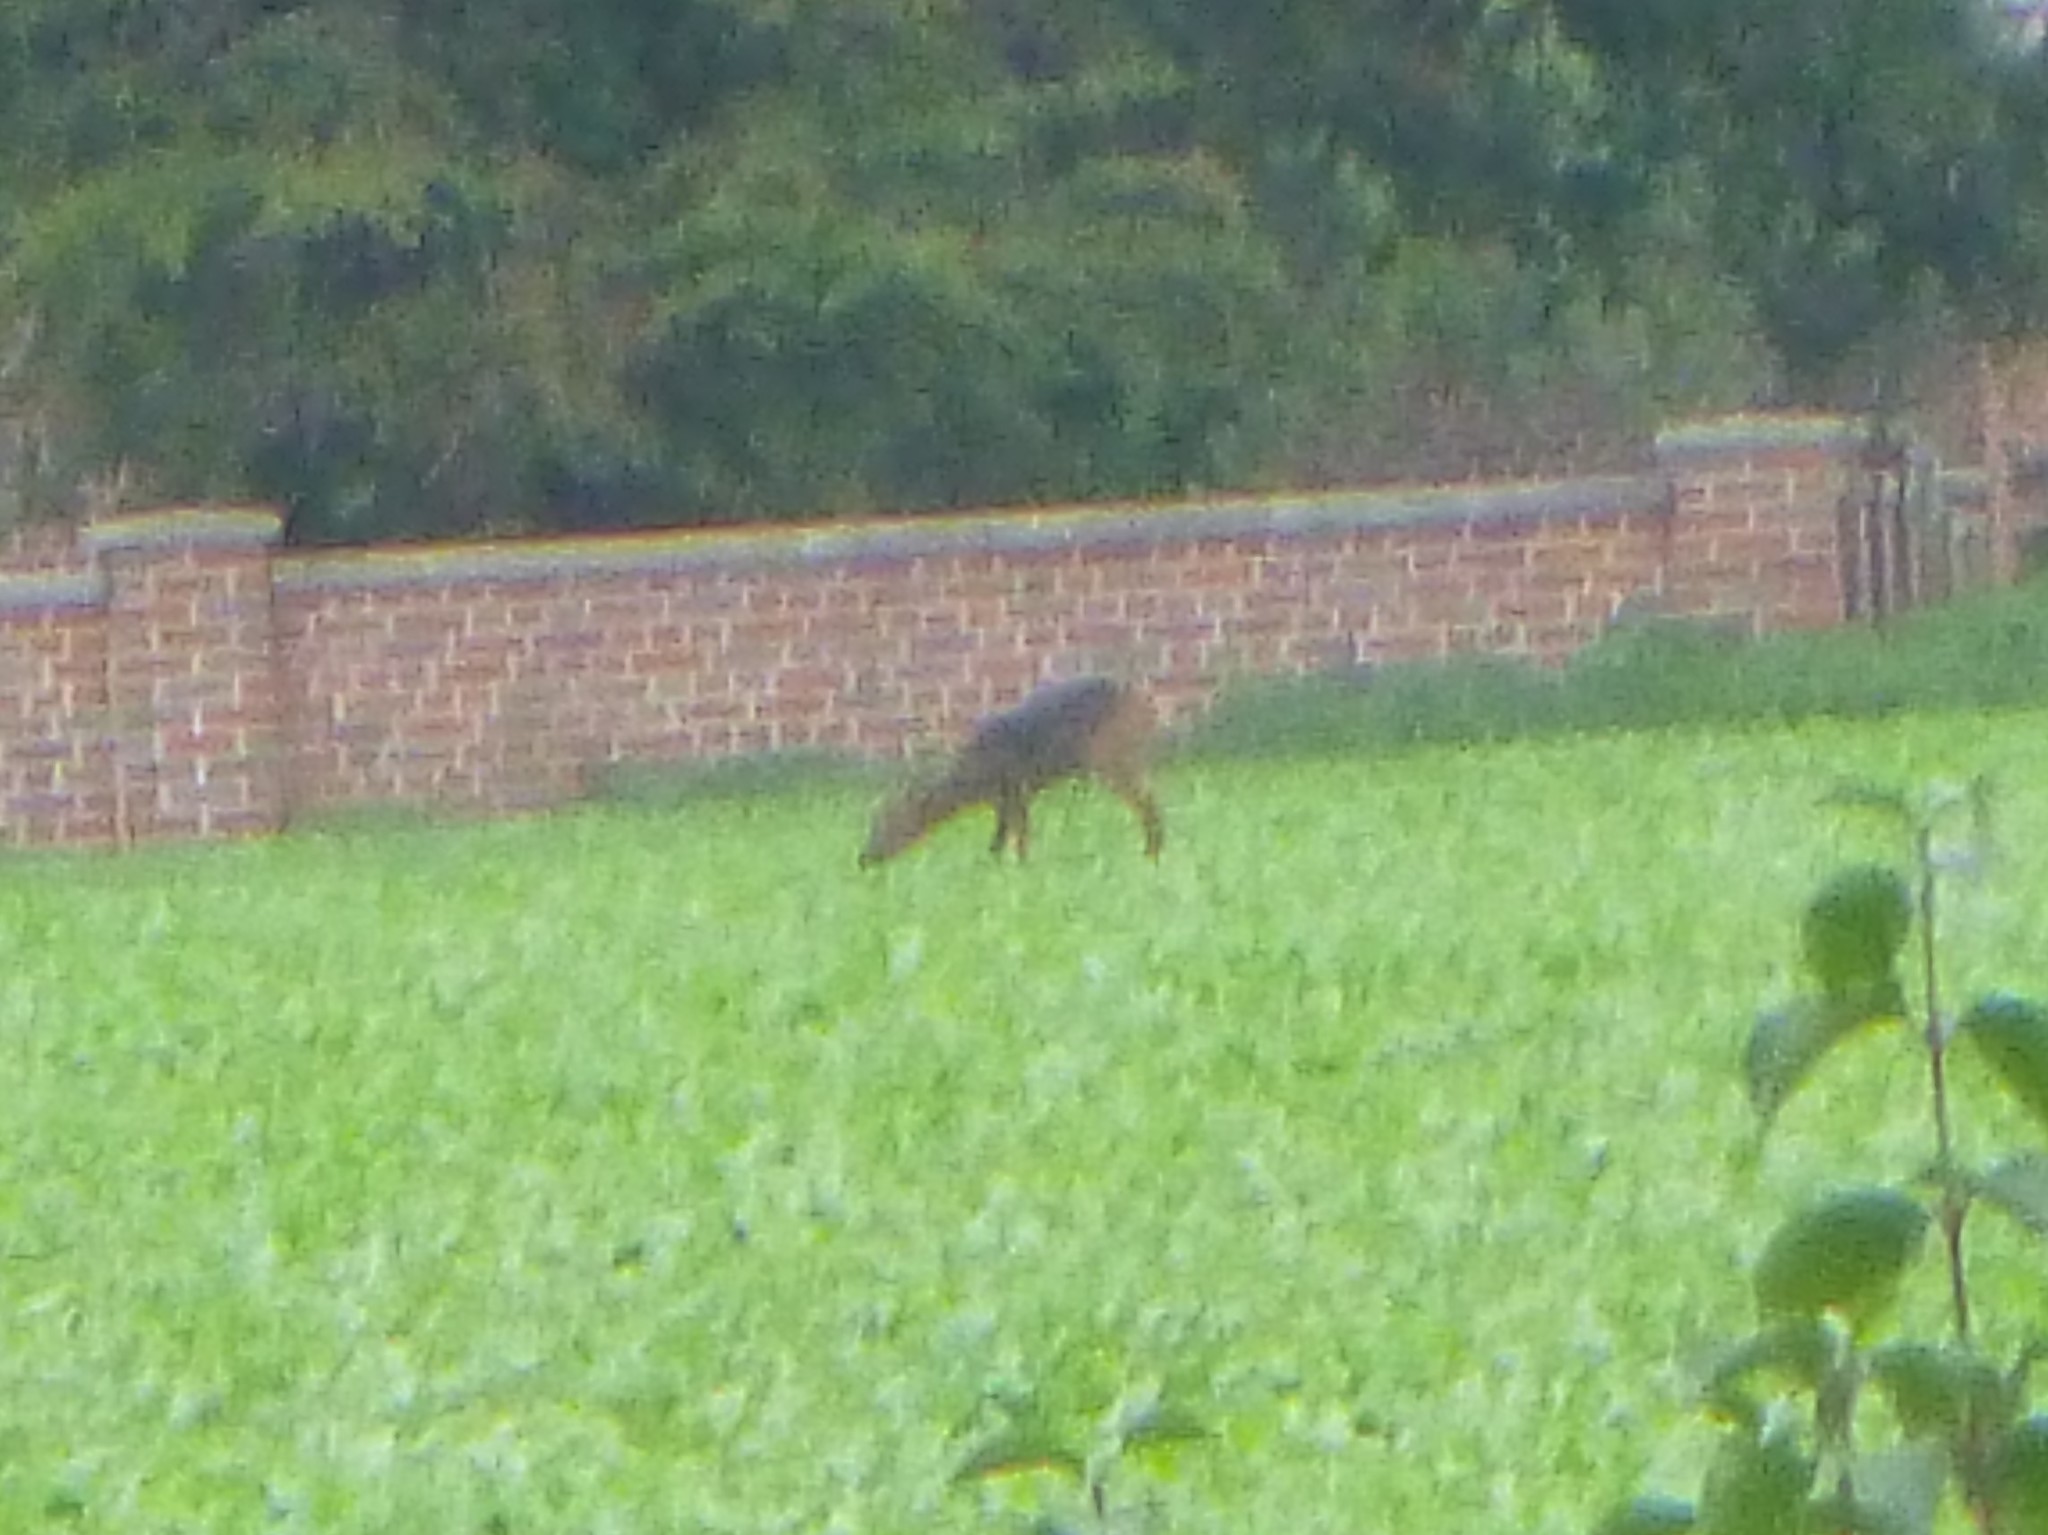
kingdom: Animalia
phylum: Chordata
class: Mammalia
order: Artiodactyla
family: Cervidae
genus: Capreolus
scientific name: Capreolus capreolus
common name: Western roe deer
